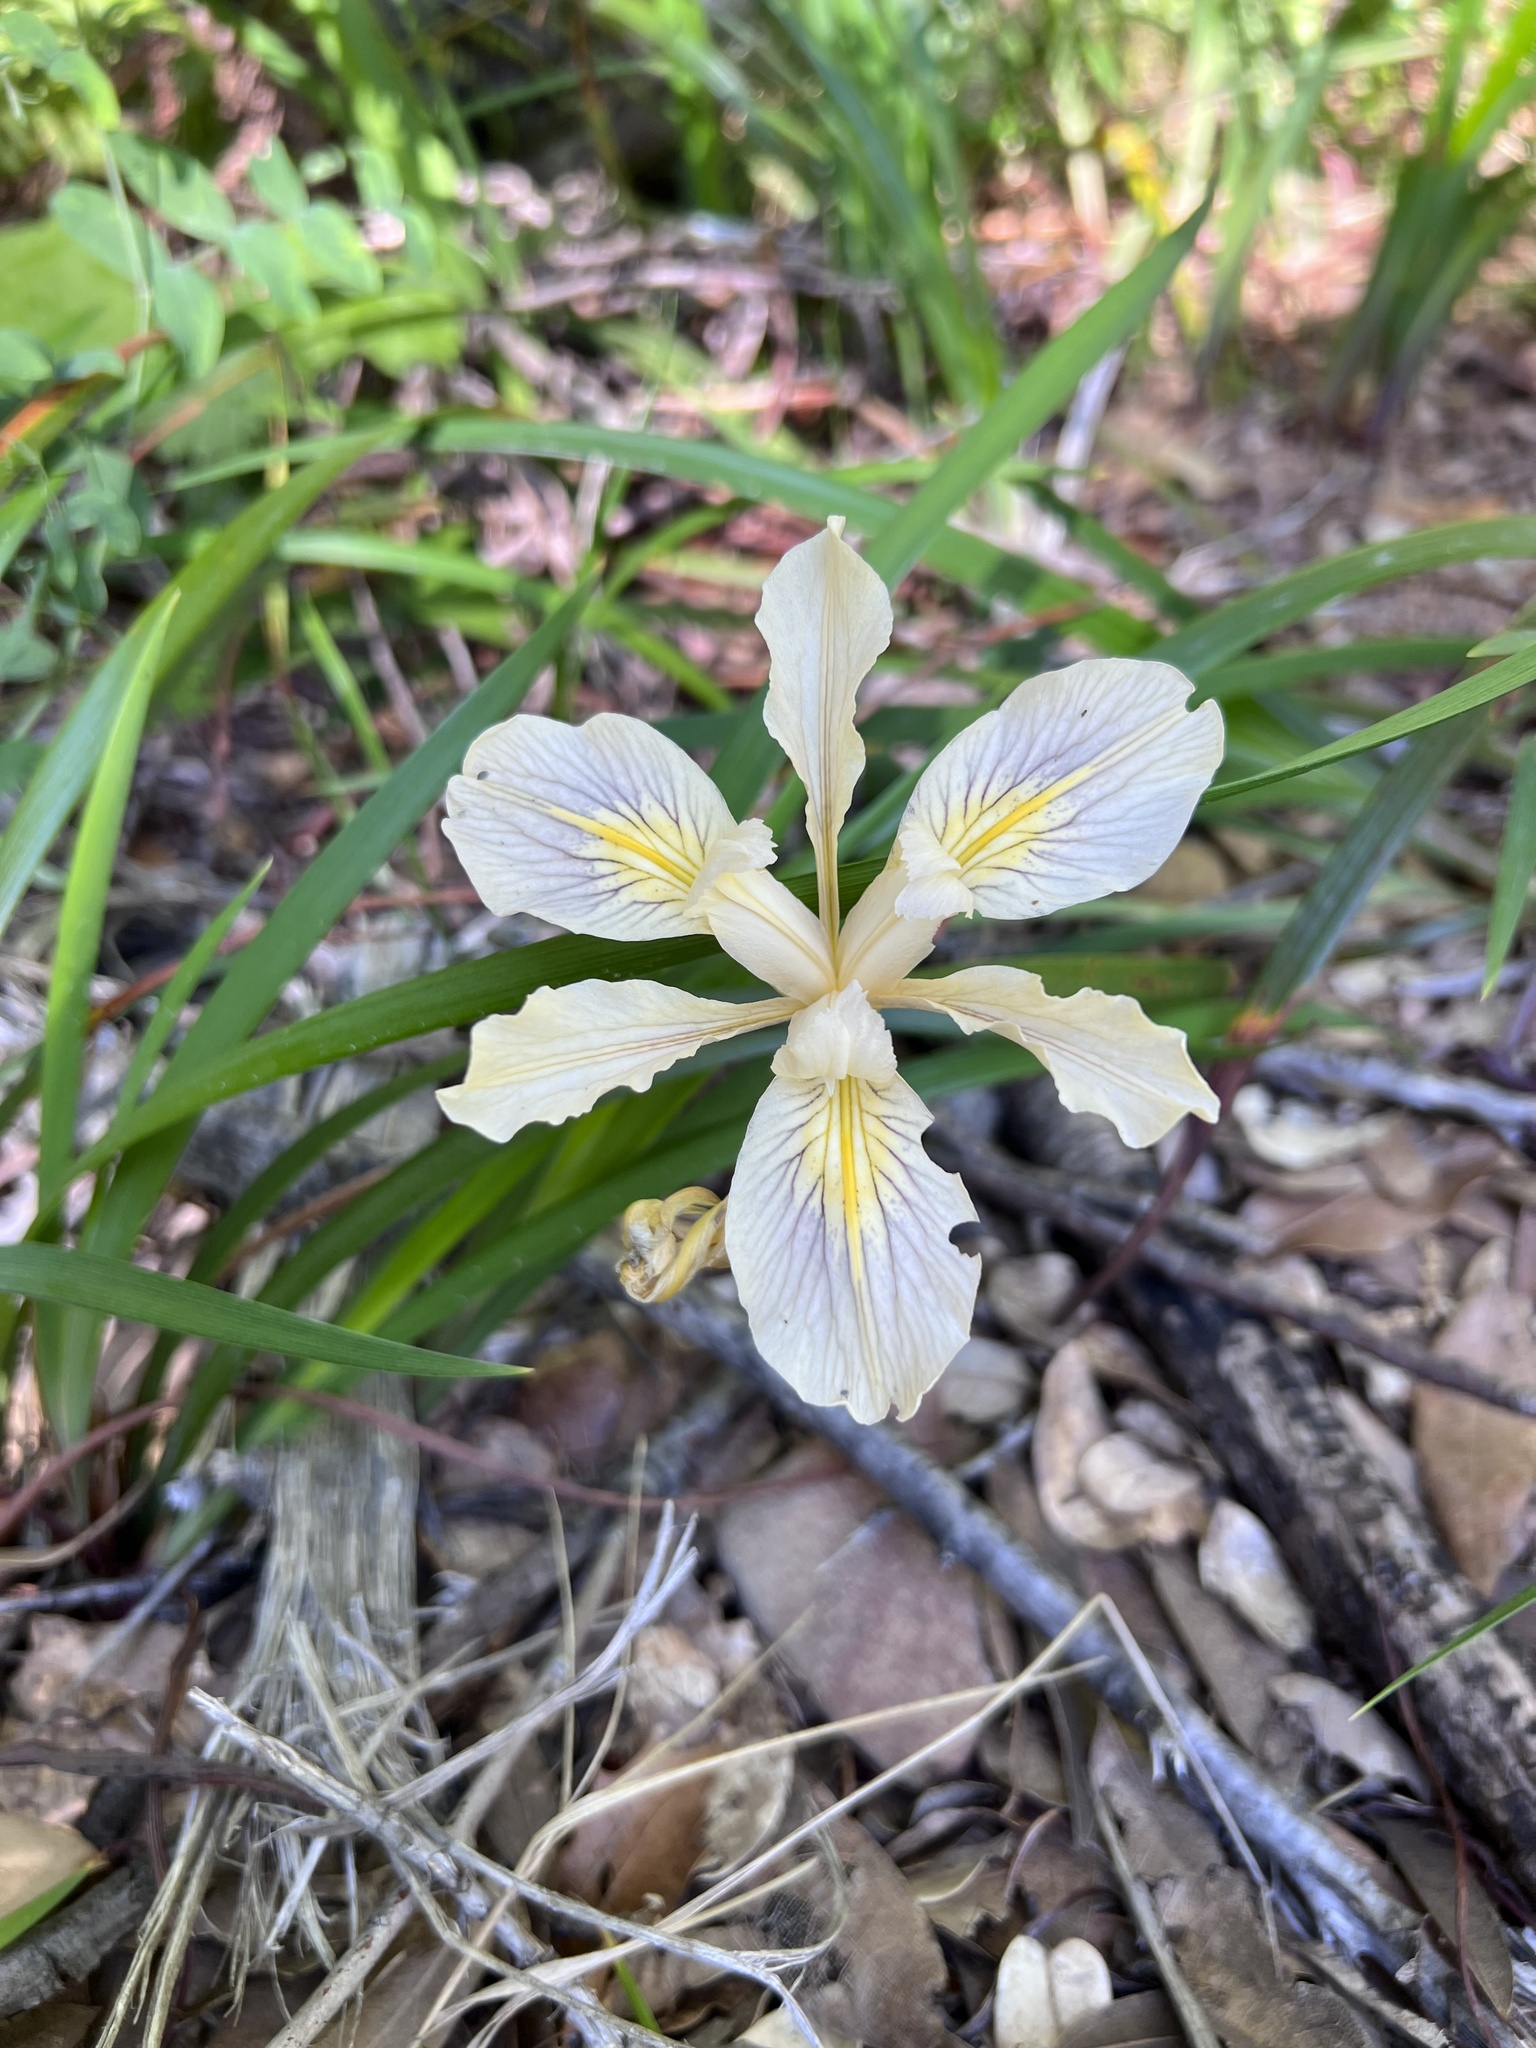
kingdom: Plantae
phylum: Tracheophyta
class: Liliopsida
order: Asparagales
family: Iridaceae
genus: Iris
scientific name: Iris douglasiana
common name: Marin iris
